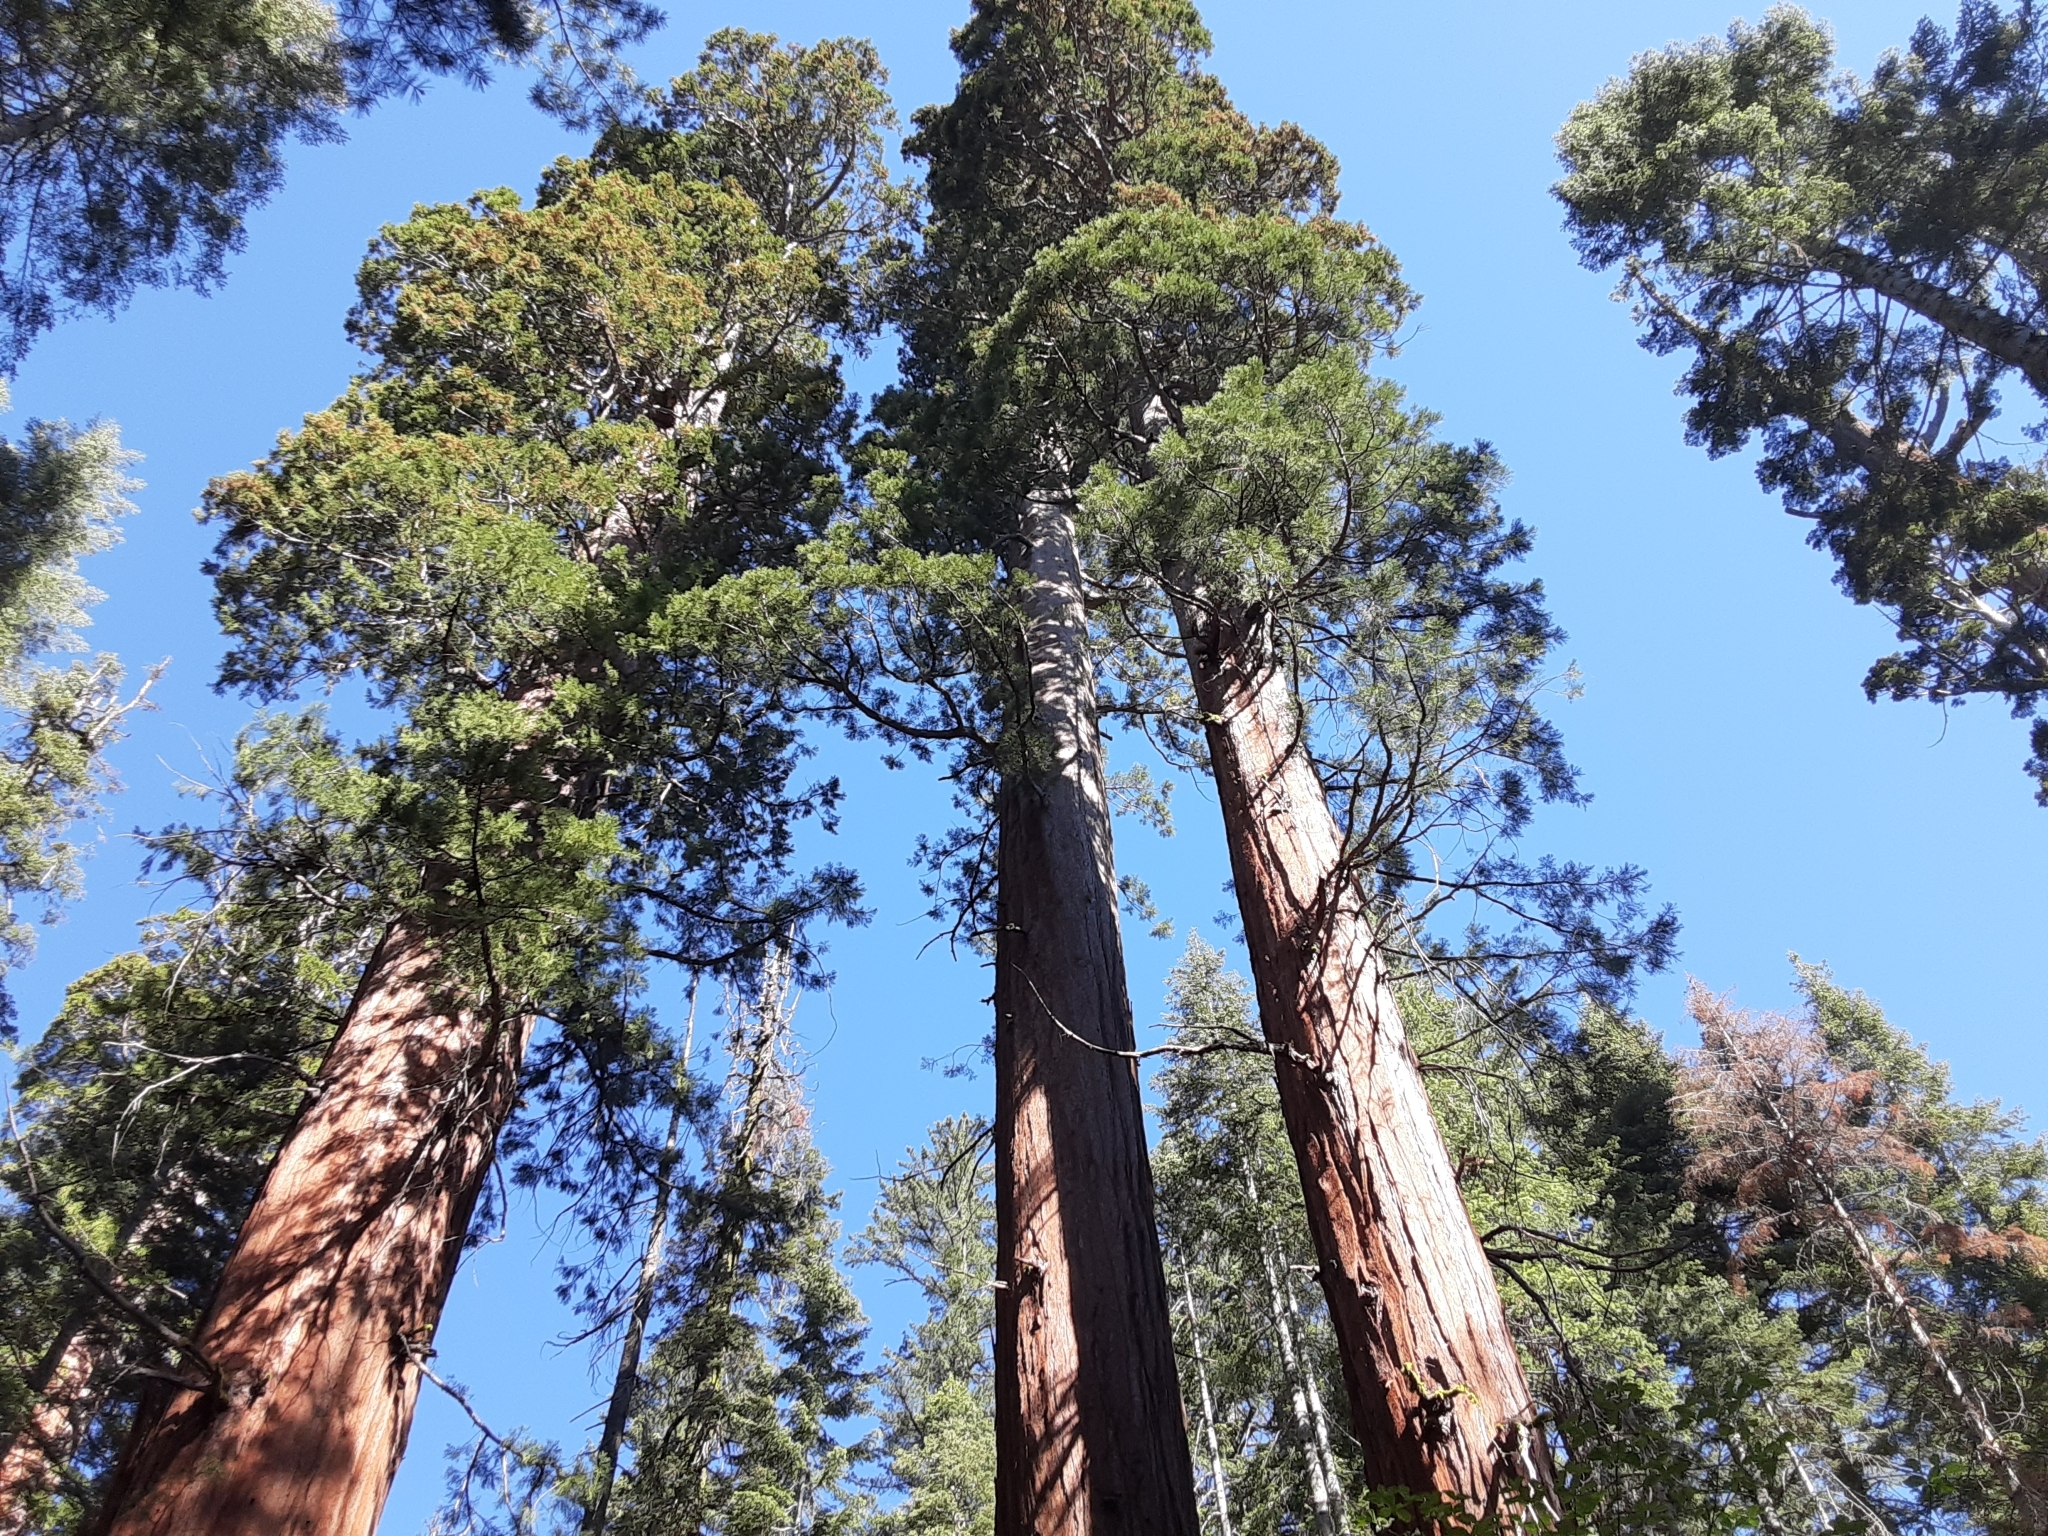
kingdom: Plantae
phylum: Tracheophyta
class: Pinopsida
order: Pinales
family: Cupressaceae
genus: Sequoiadendron
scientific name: Sequoiadendron giganteum
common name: Wellingtonia
